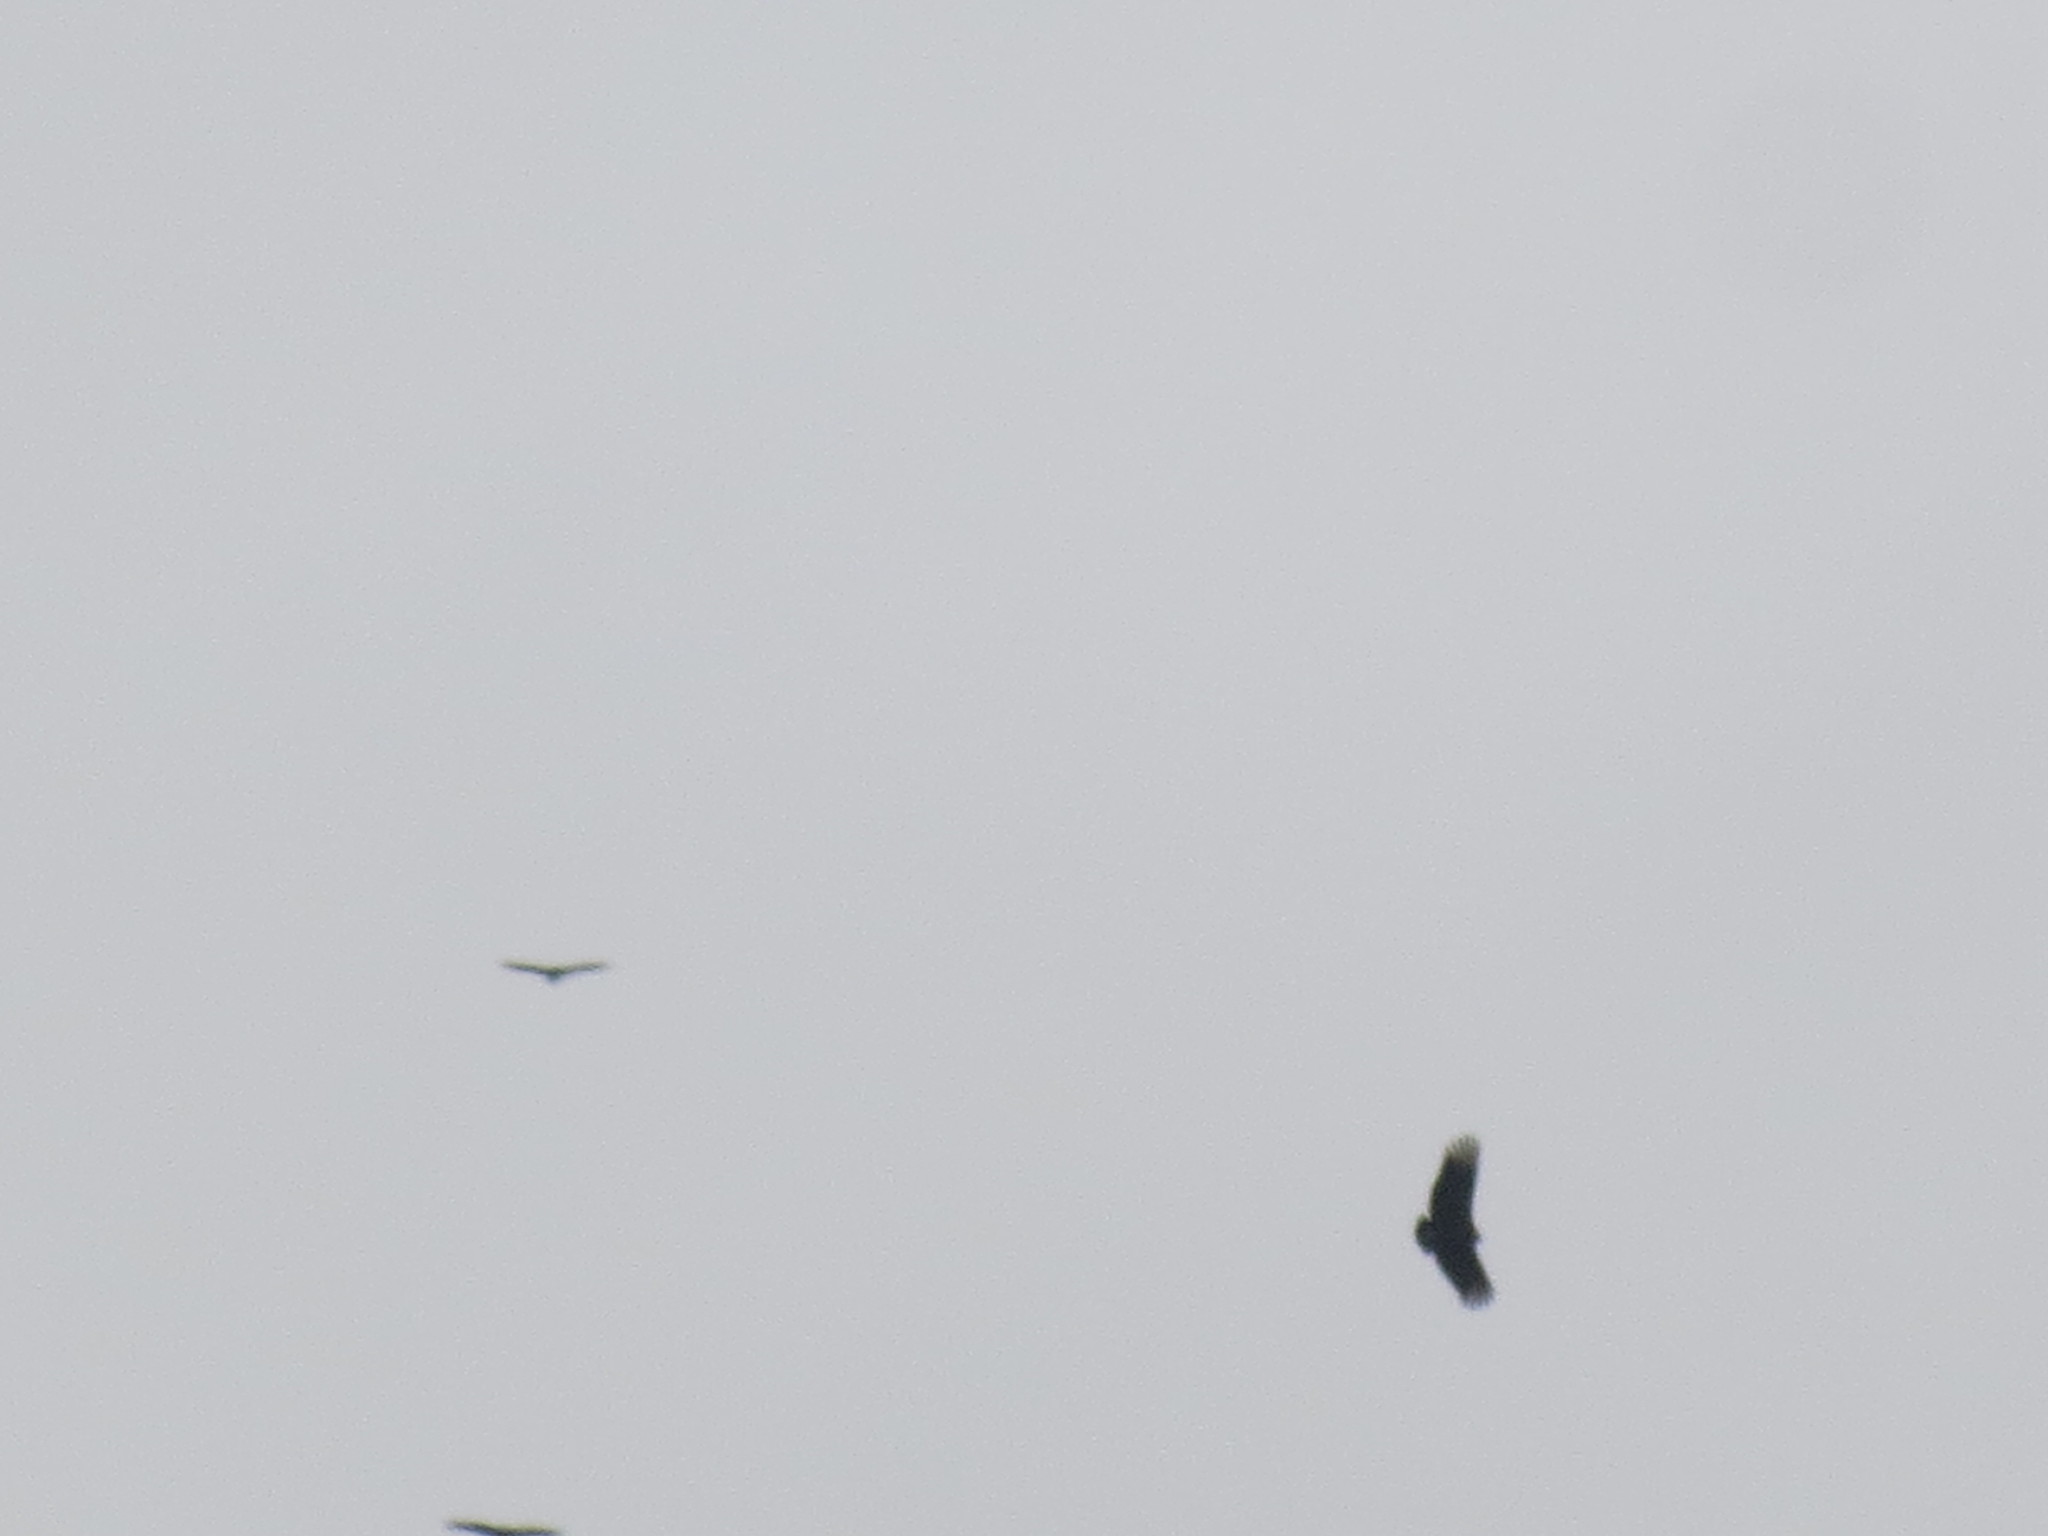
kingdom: Animalia
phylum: Chordata
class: Aves
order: Accipitriformes
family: Cathartidae
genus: Coragyps
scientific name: Coragyps atratus
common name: Black vulture
